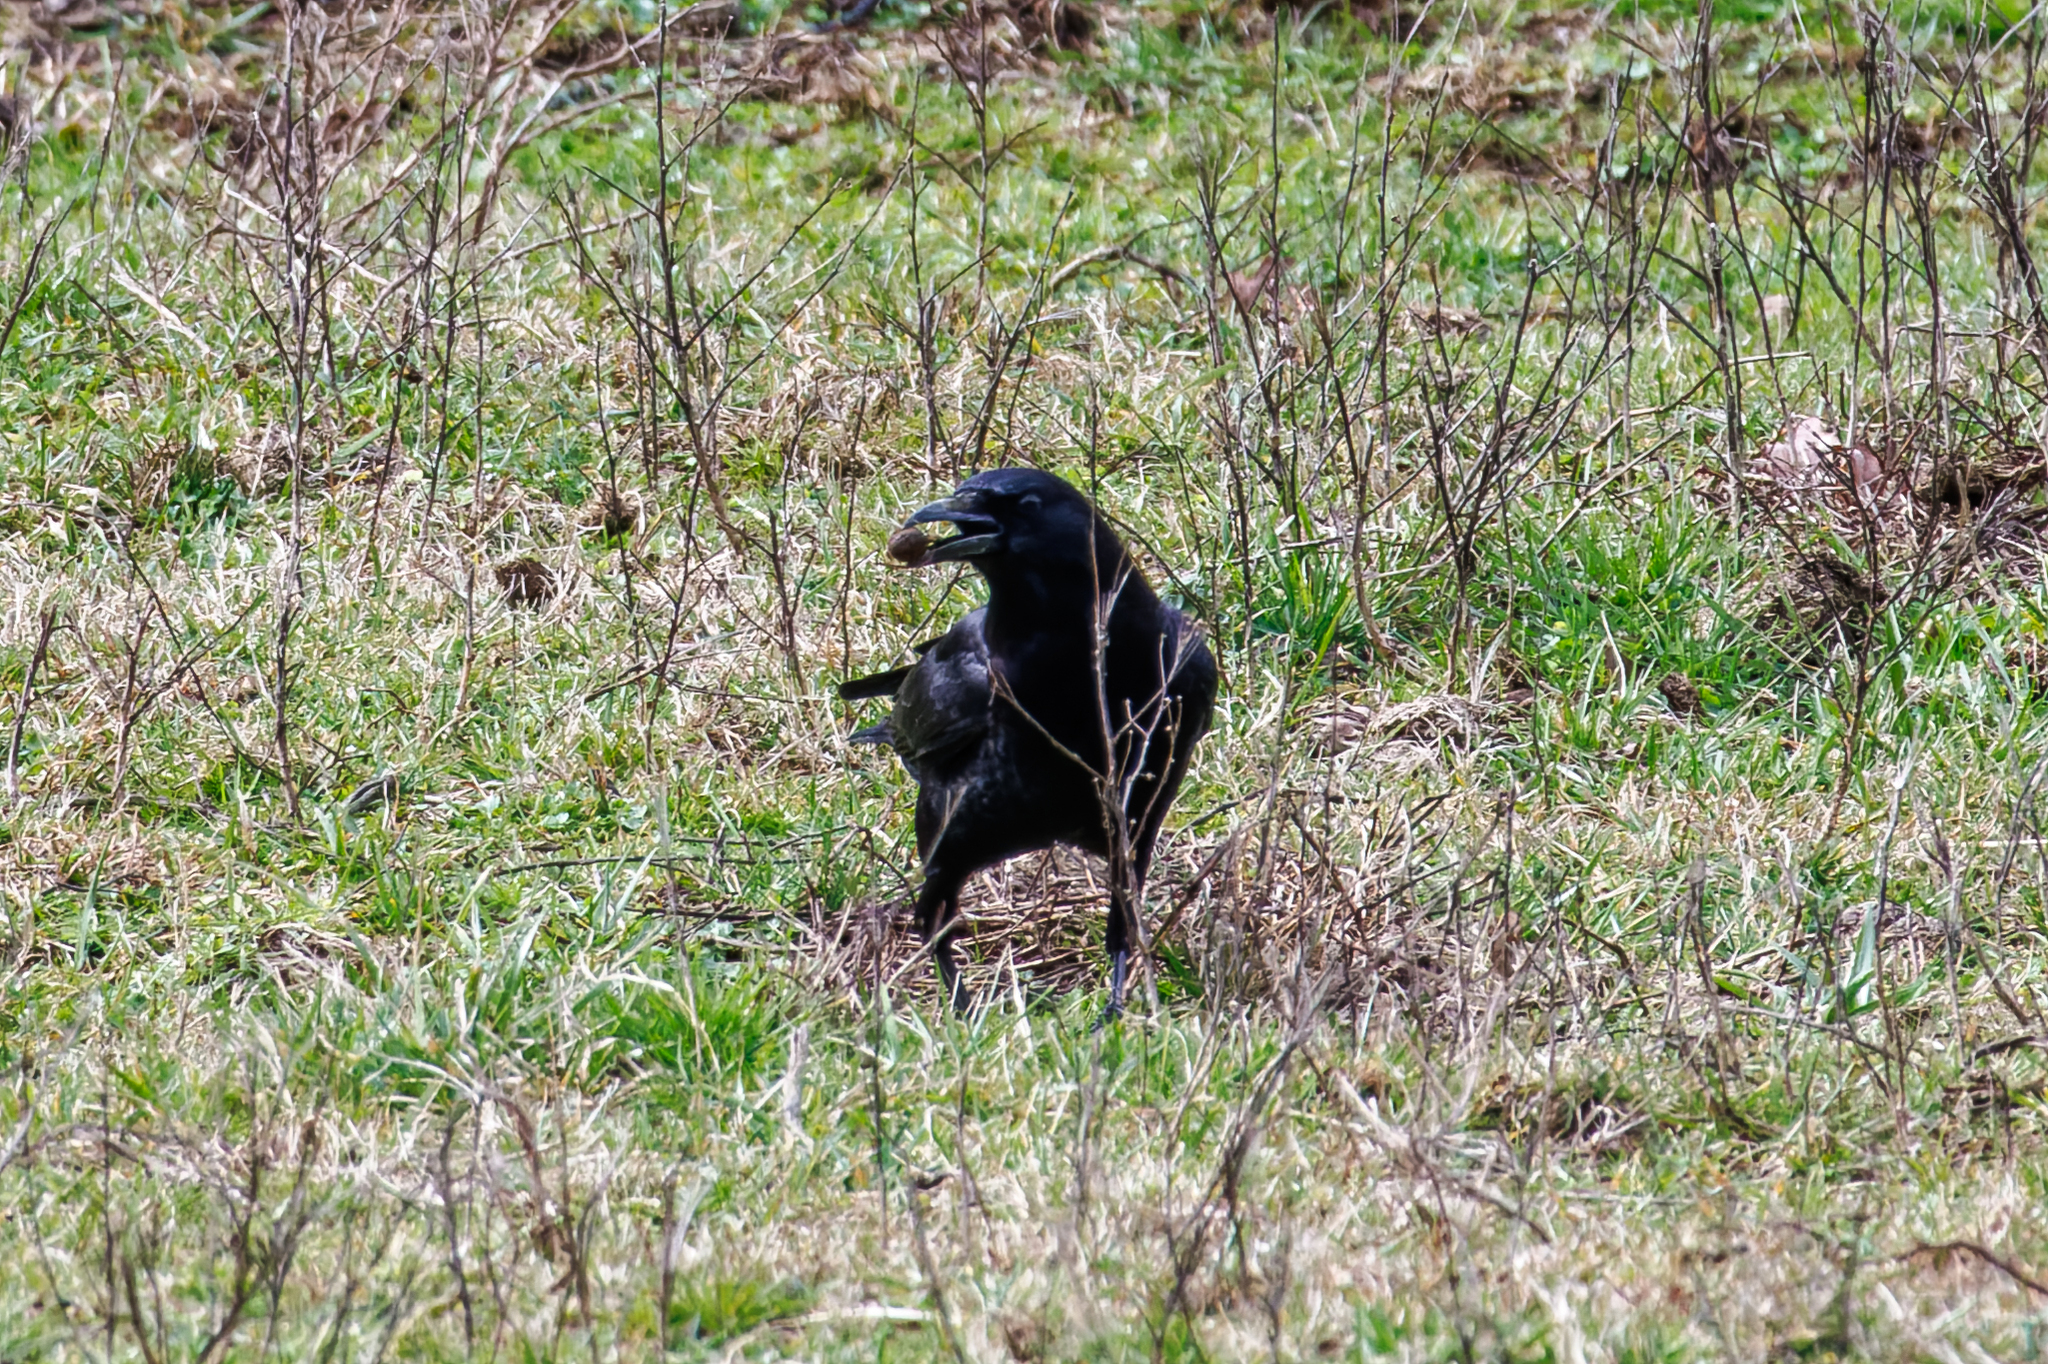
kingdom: Animalia
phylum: Chordata
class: Aves
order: Passeriformes
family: Corvidae
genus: Corvus
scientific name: Corvus brachyrhynchos
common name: American crow
